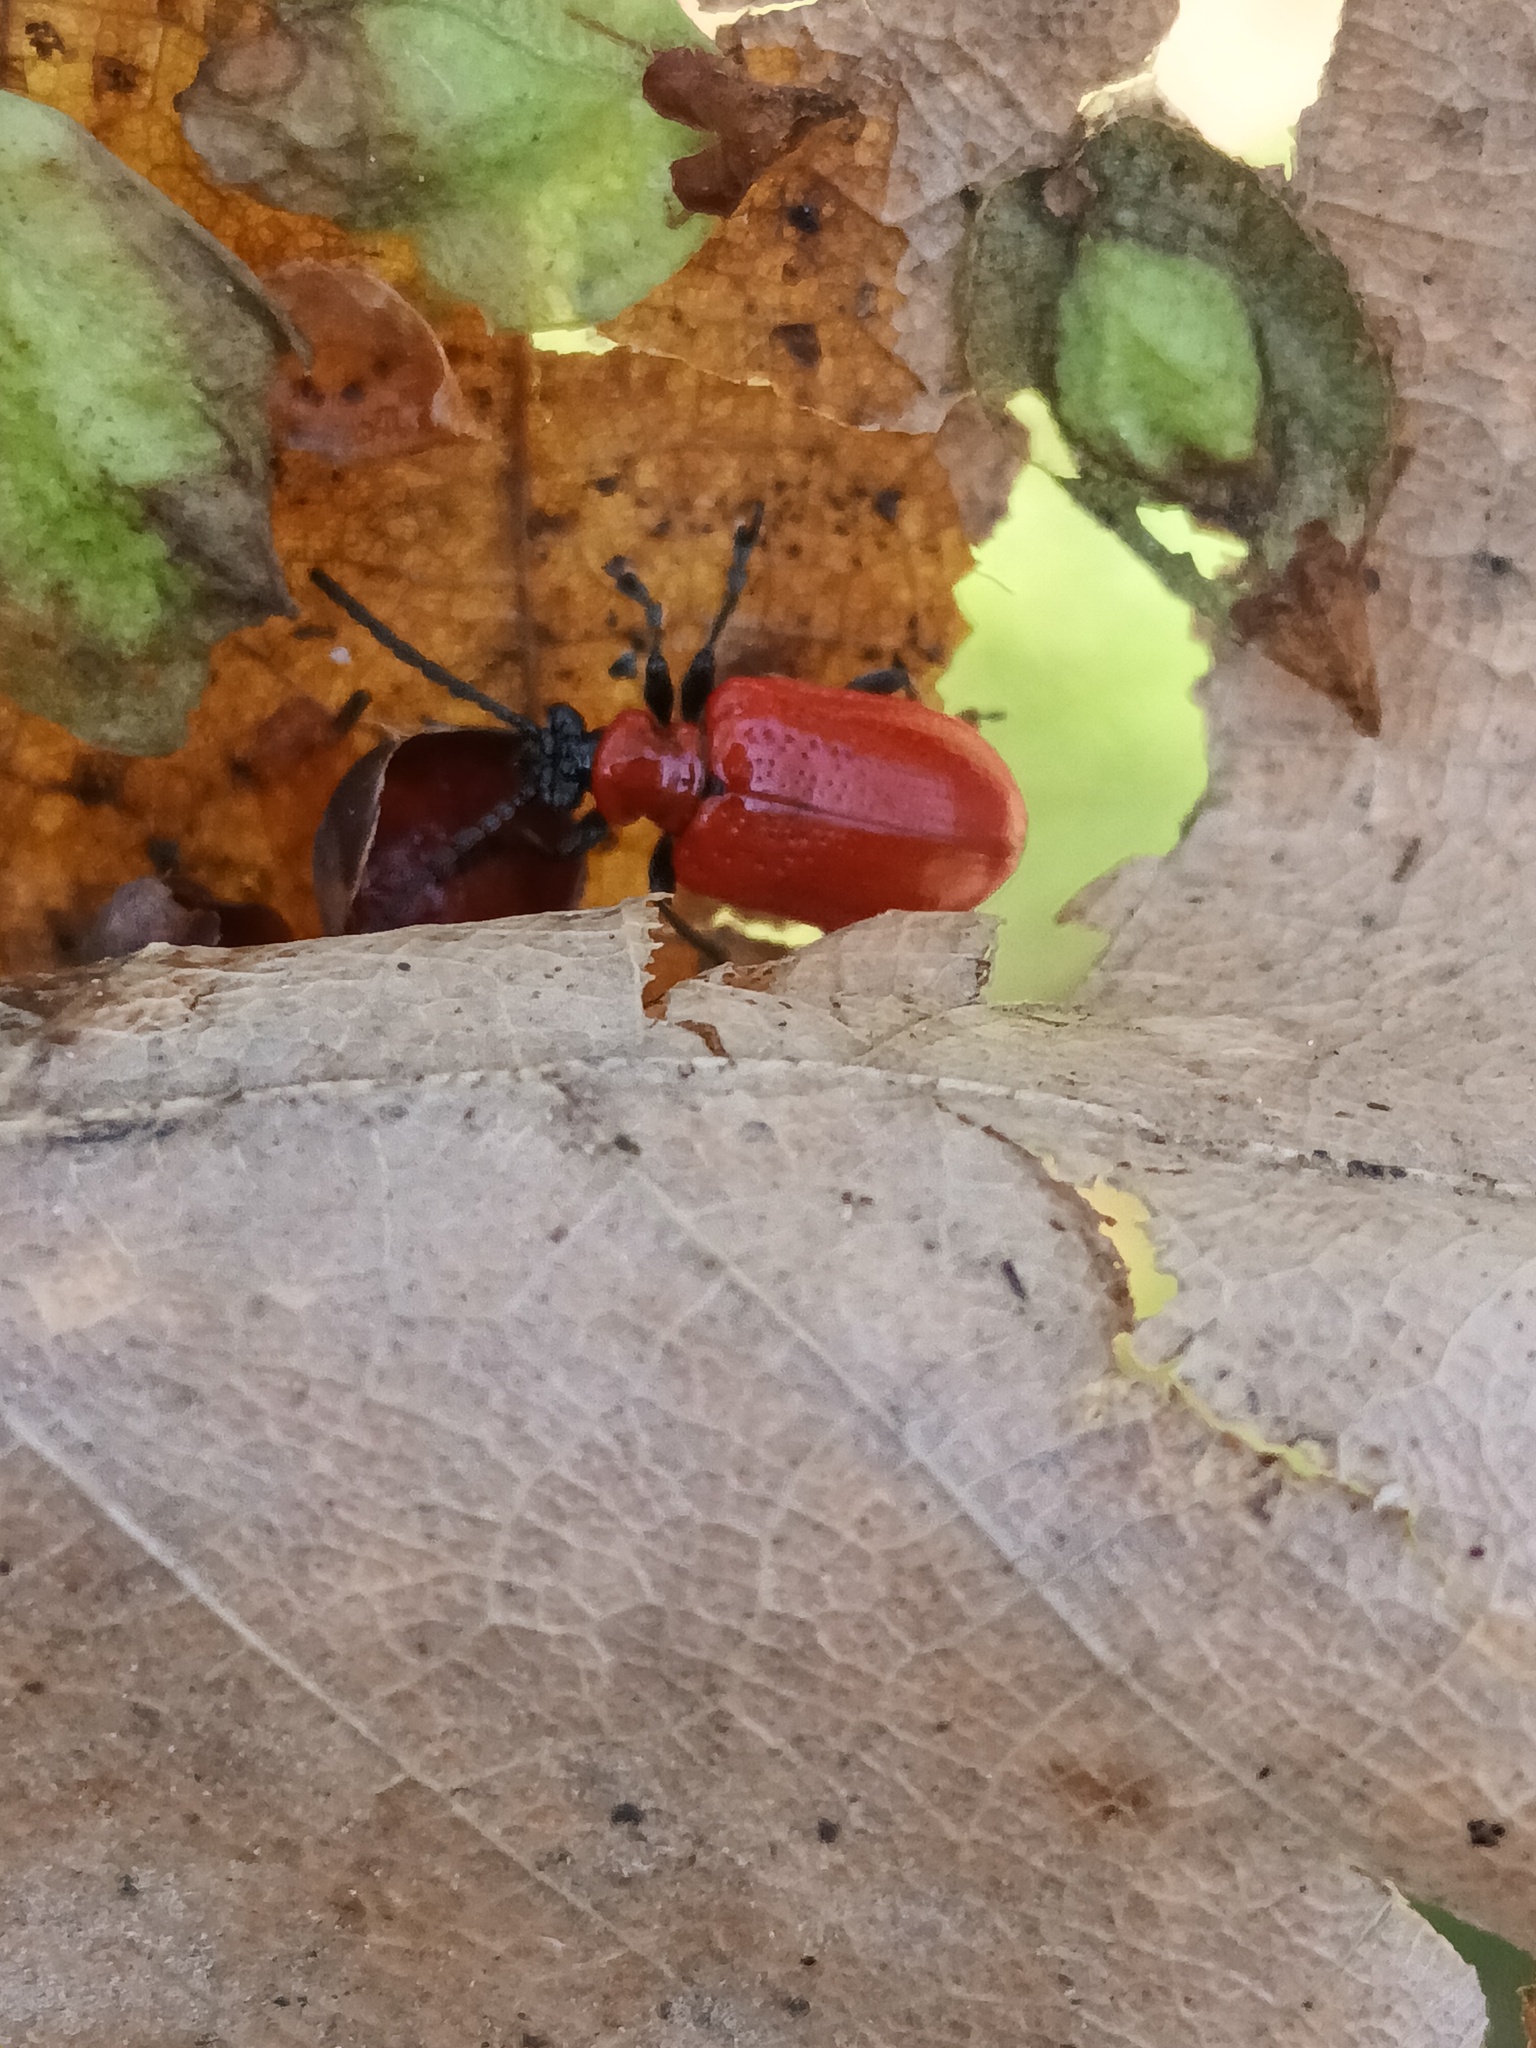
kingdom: Animalia
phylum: Arthropoda
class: Insecta
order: Coleoptera
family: Chrysomelidae
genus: Lilioceris
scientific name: Lilioceris lilii
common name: Lily beetle
